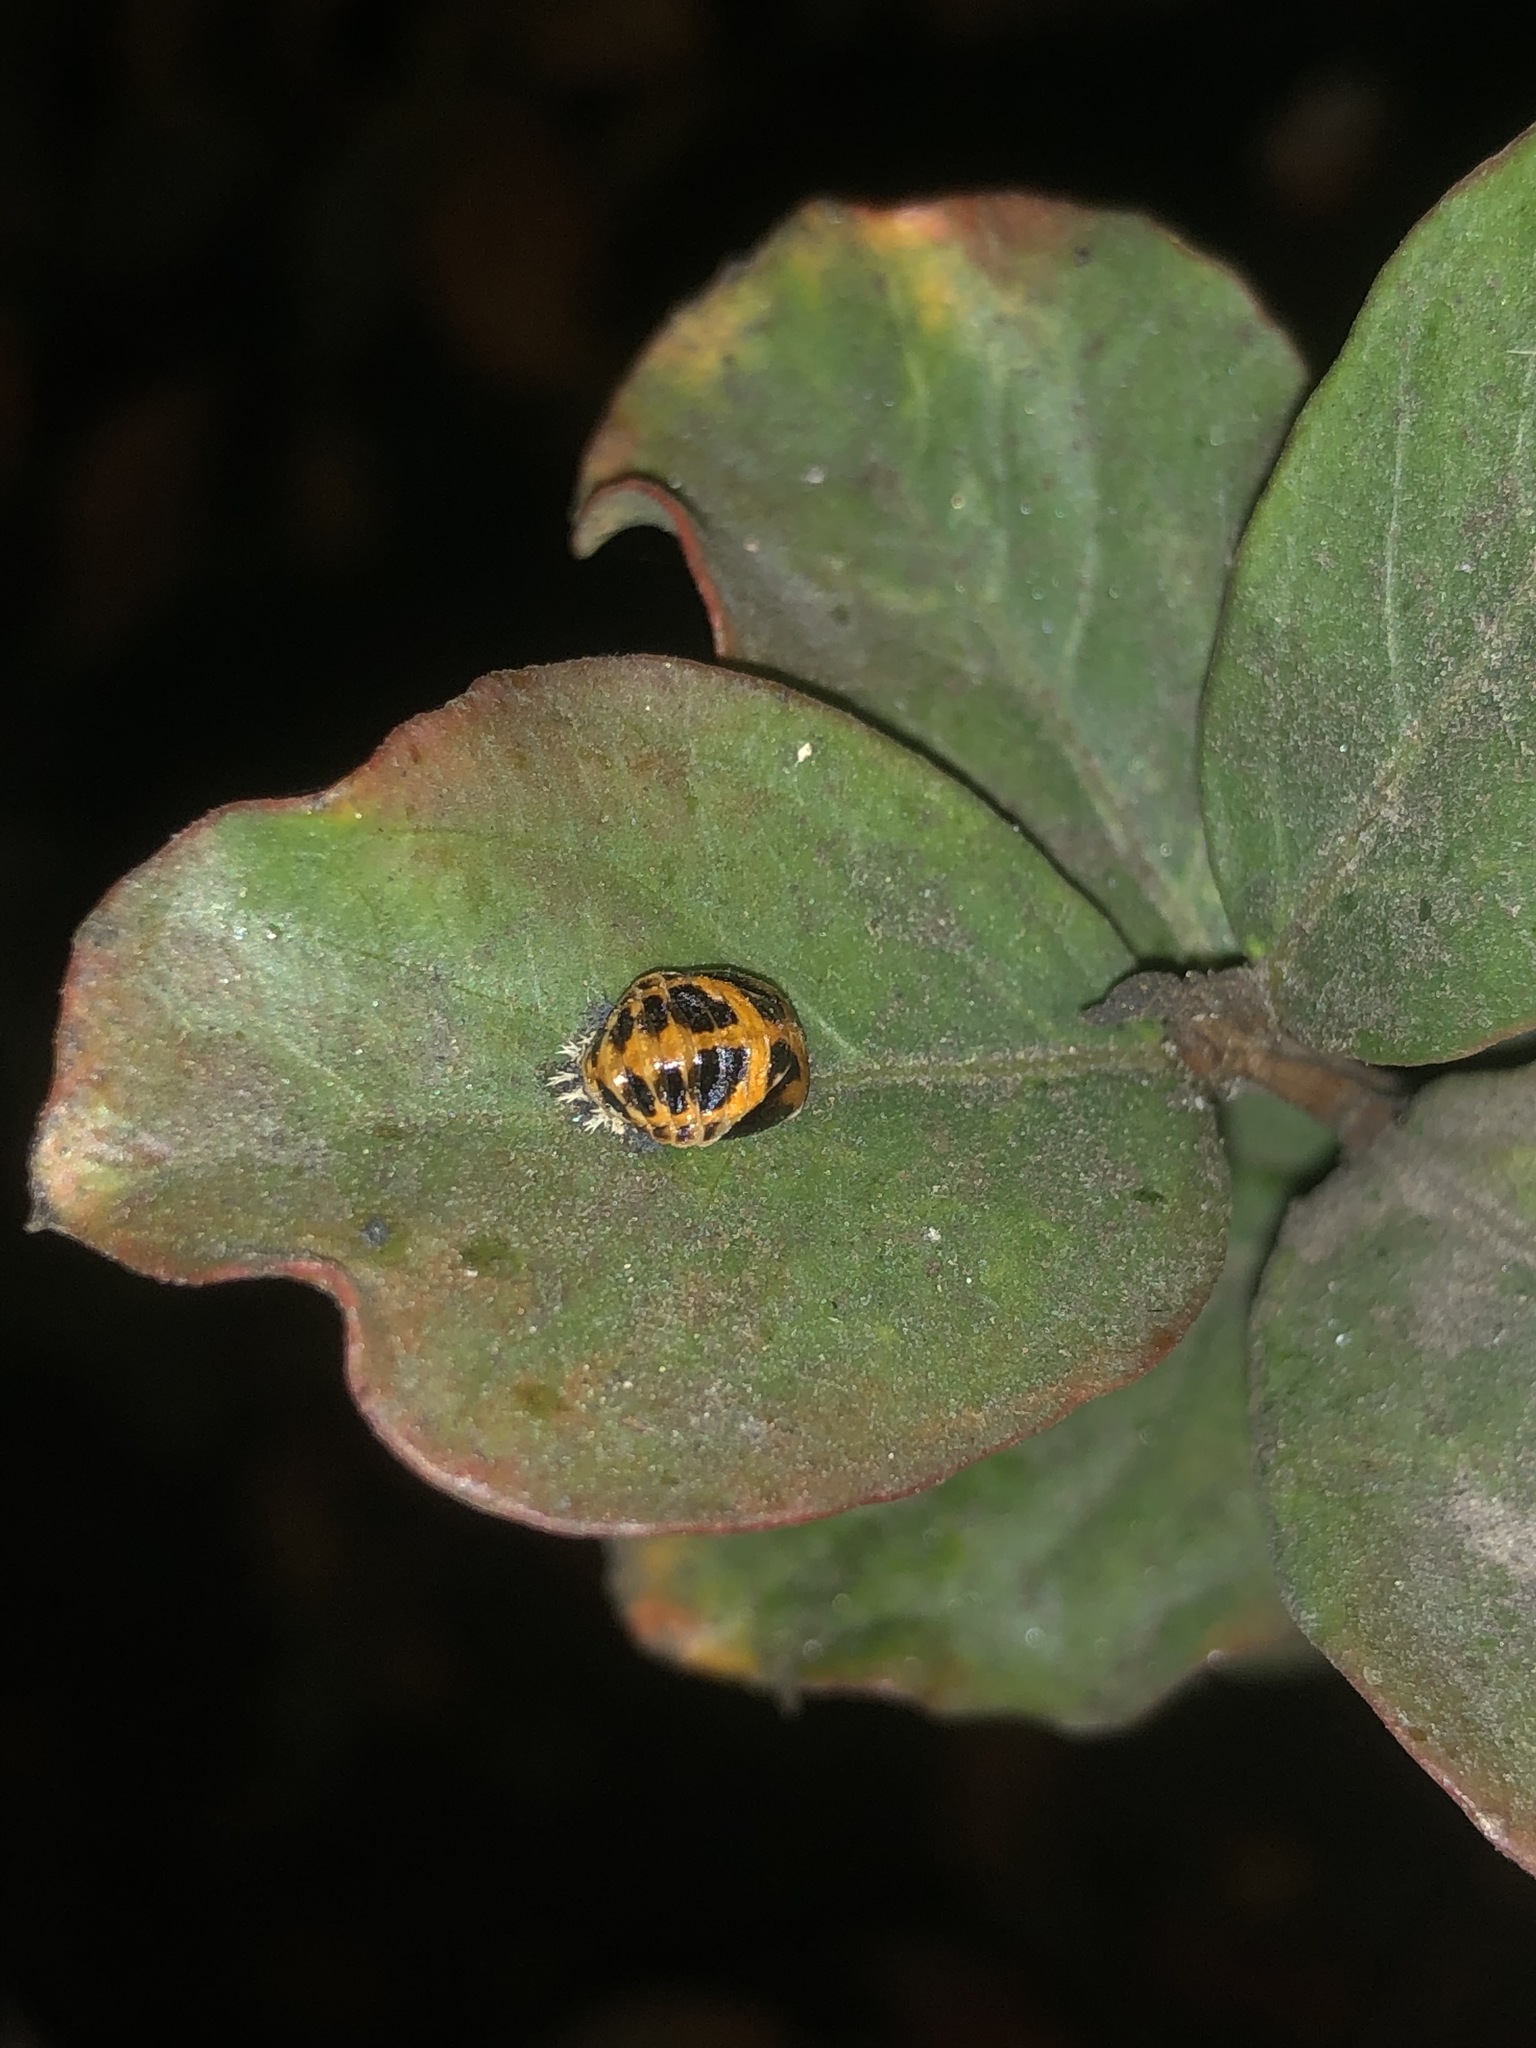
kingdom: Animalia
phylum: Arthropoda
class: Insecta
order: Coleoptera
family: Coccinellidae
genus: Harmonia
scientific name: Harmonia axyridis
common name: Harlequin ladybird
